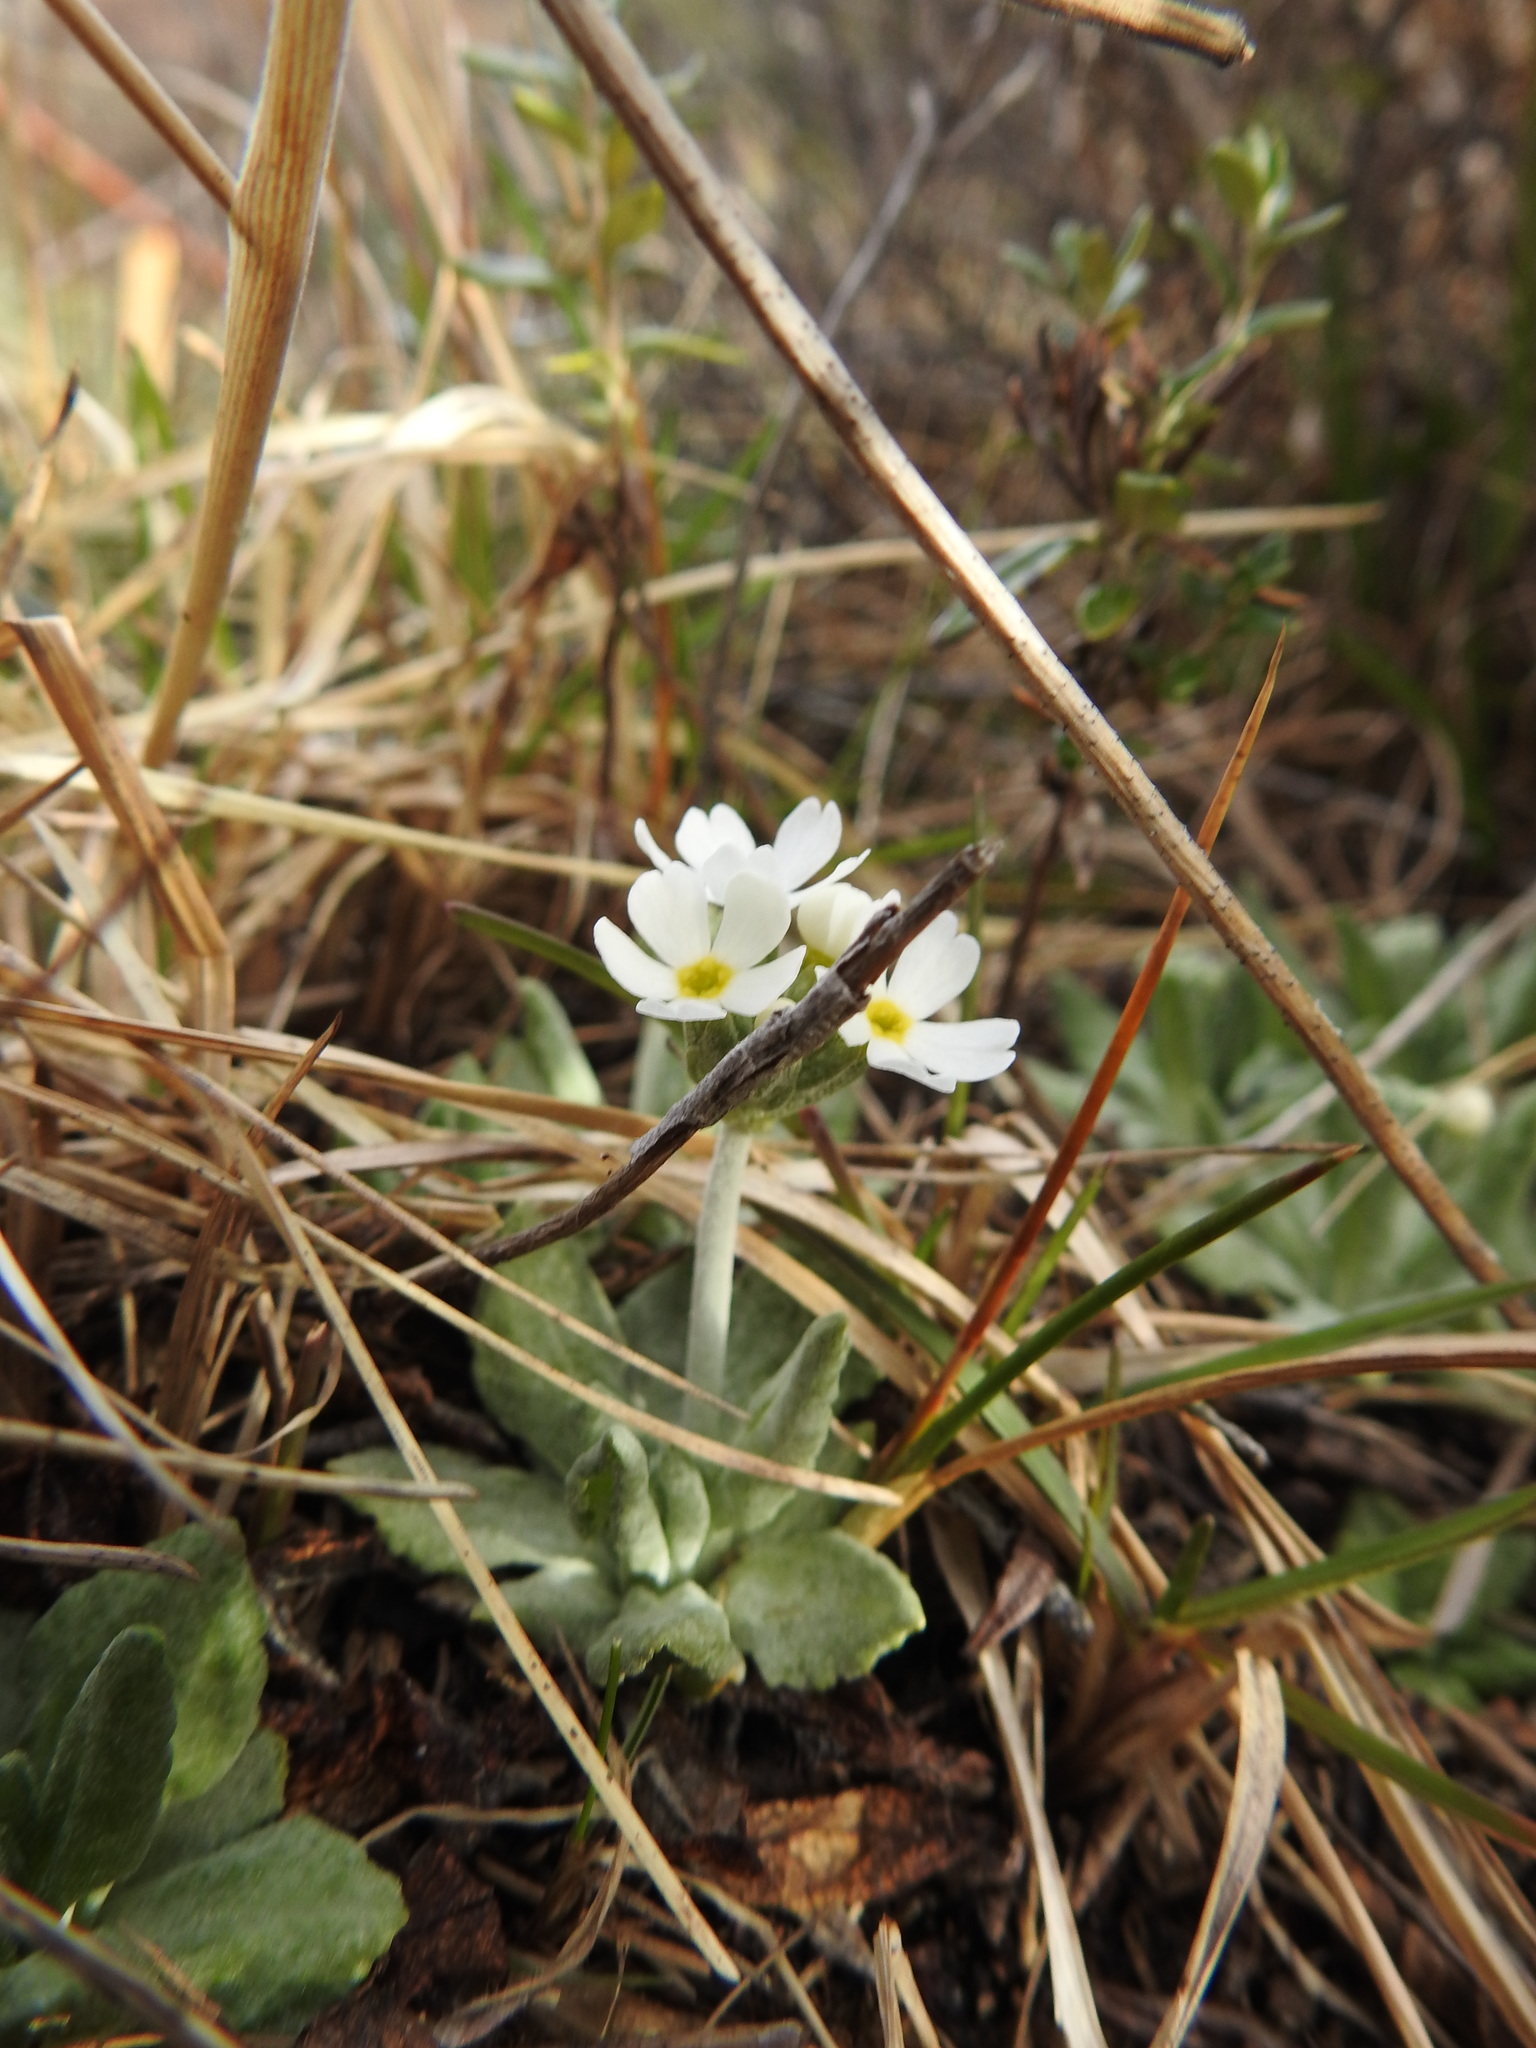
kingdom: Plantae
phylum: Tracheophyta
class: Magnoliopsida
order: Ericales
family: Primulaceae
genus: Primula
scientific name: Primula magellanica
